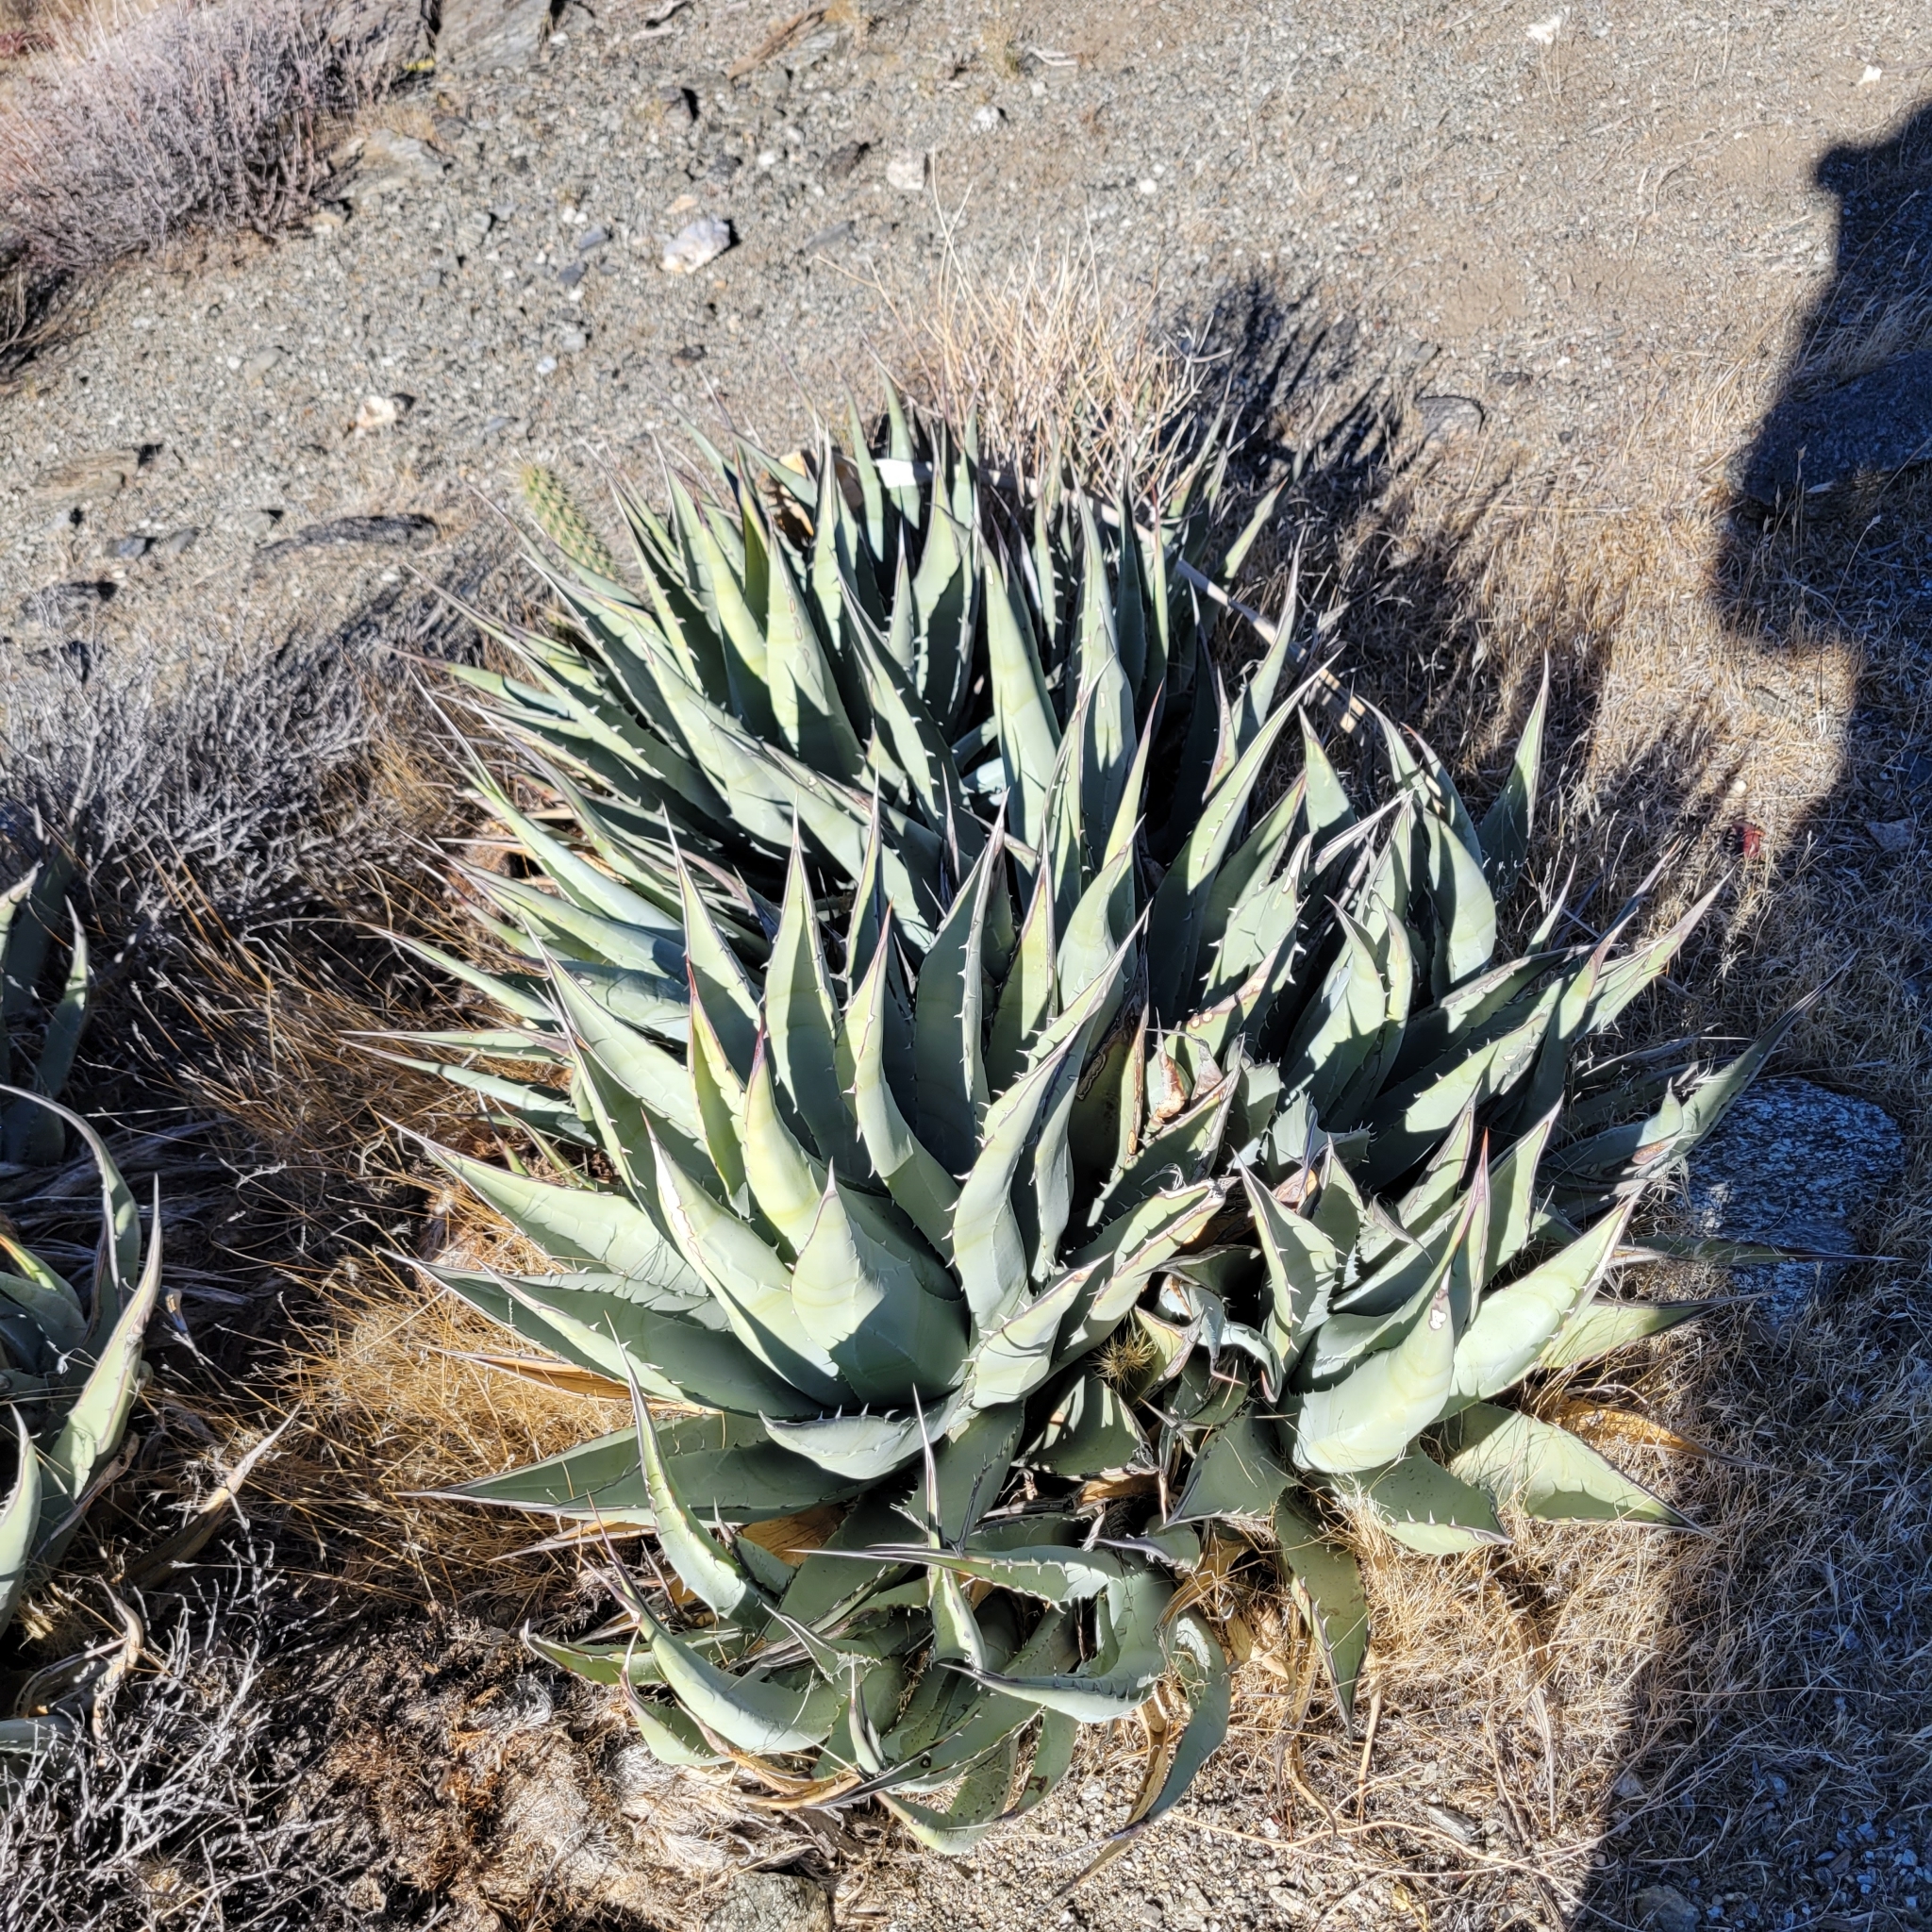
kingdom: Plantae
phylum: Tracheophyta
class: Liliopsida
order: Asparagales
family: Asparagaceae
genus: Agave
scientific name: Agave deserti
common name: Desert agave
